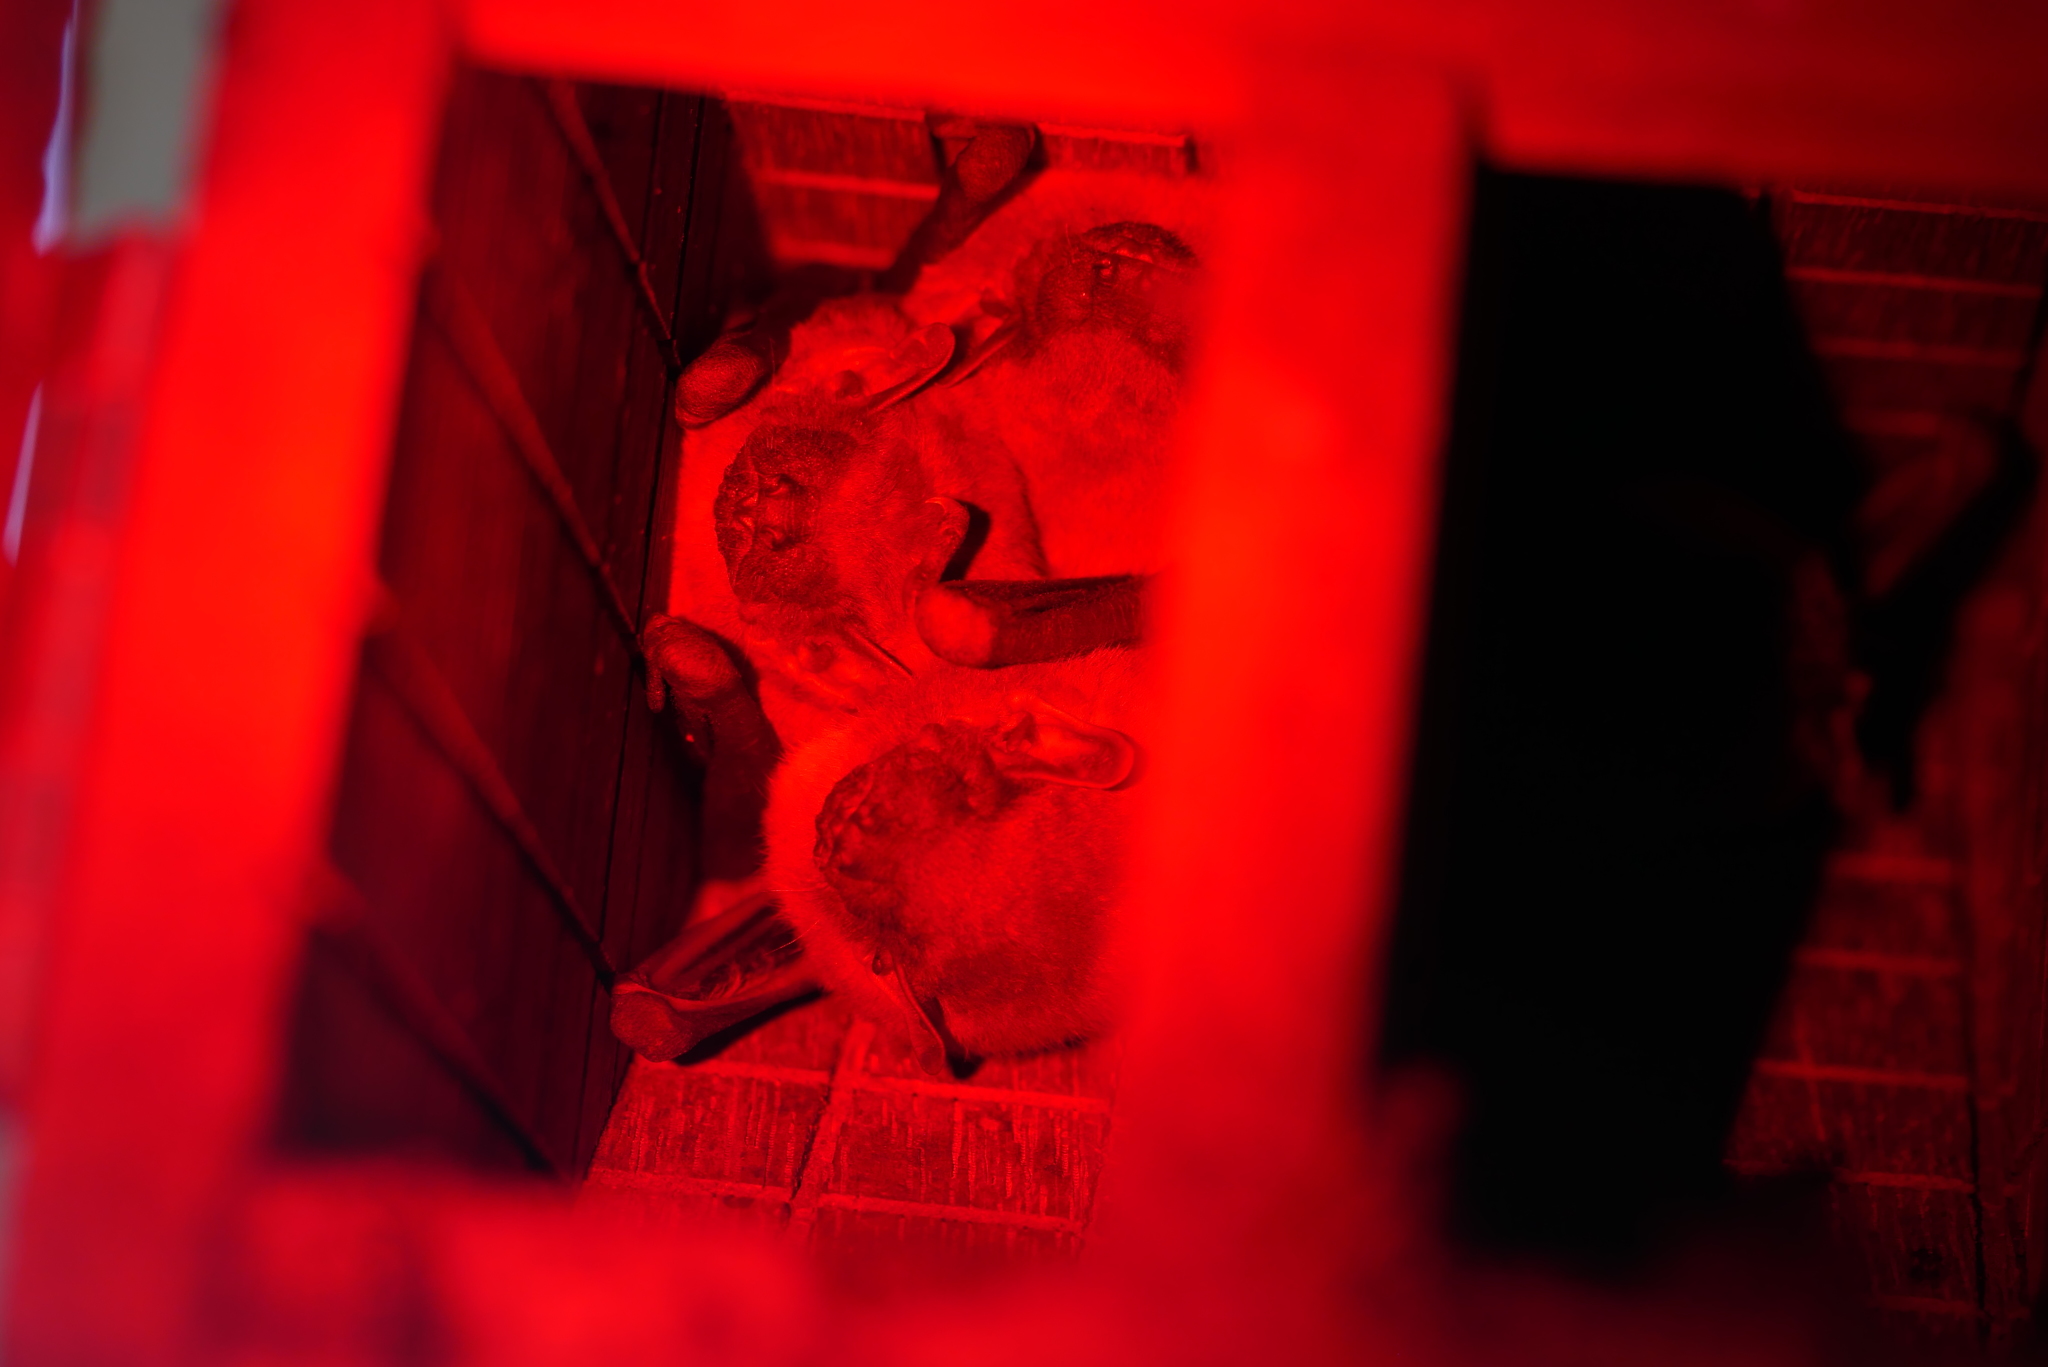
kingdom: Animalia
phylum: Chordata
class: Mammalia
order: Chiroptera
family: Vespertilionidae
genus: Scotophilus
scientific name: Scotophilus kuhlii
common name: Lesser asiatic yellow house bat
